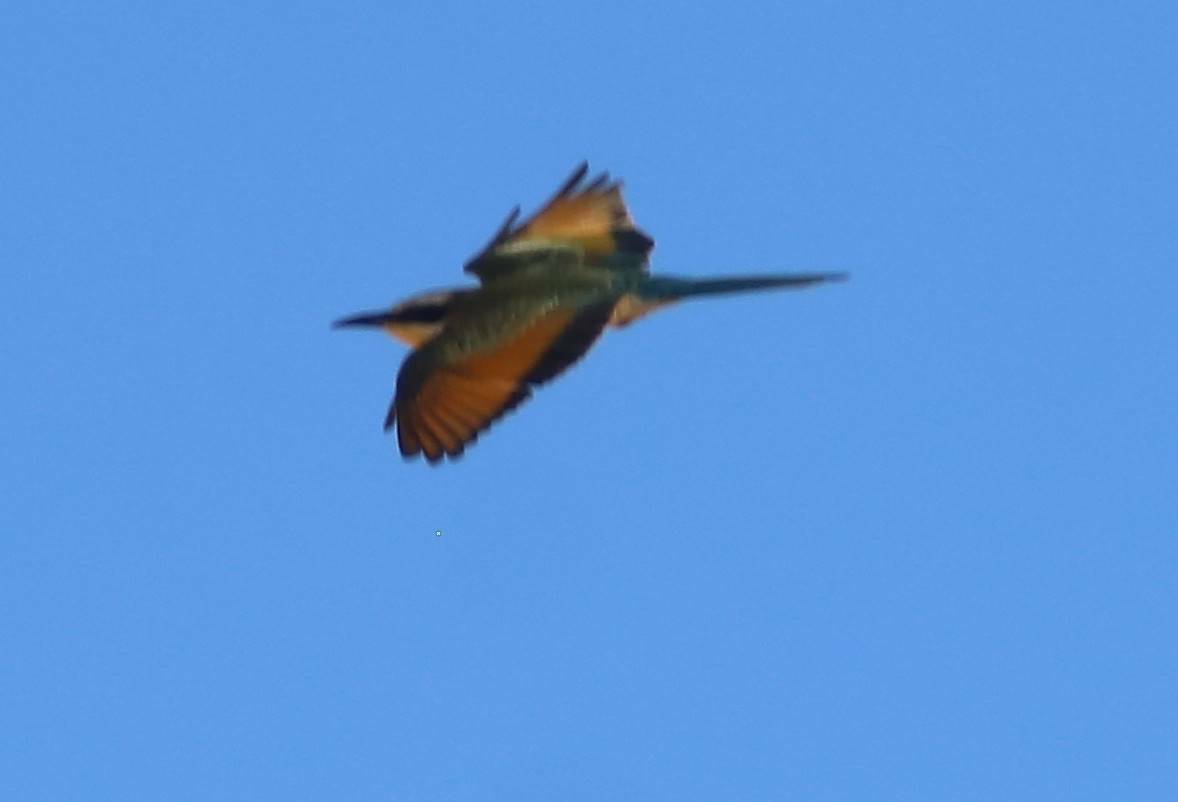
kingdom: Animalia
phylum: Chordata
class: Aves
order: Coraciiformes
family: Meropidae
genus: Merops
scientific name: Merops albicollis
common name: White-throated bee-eater
